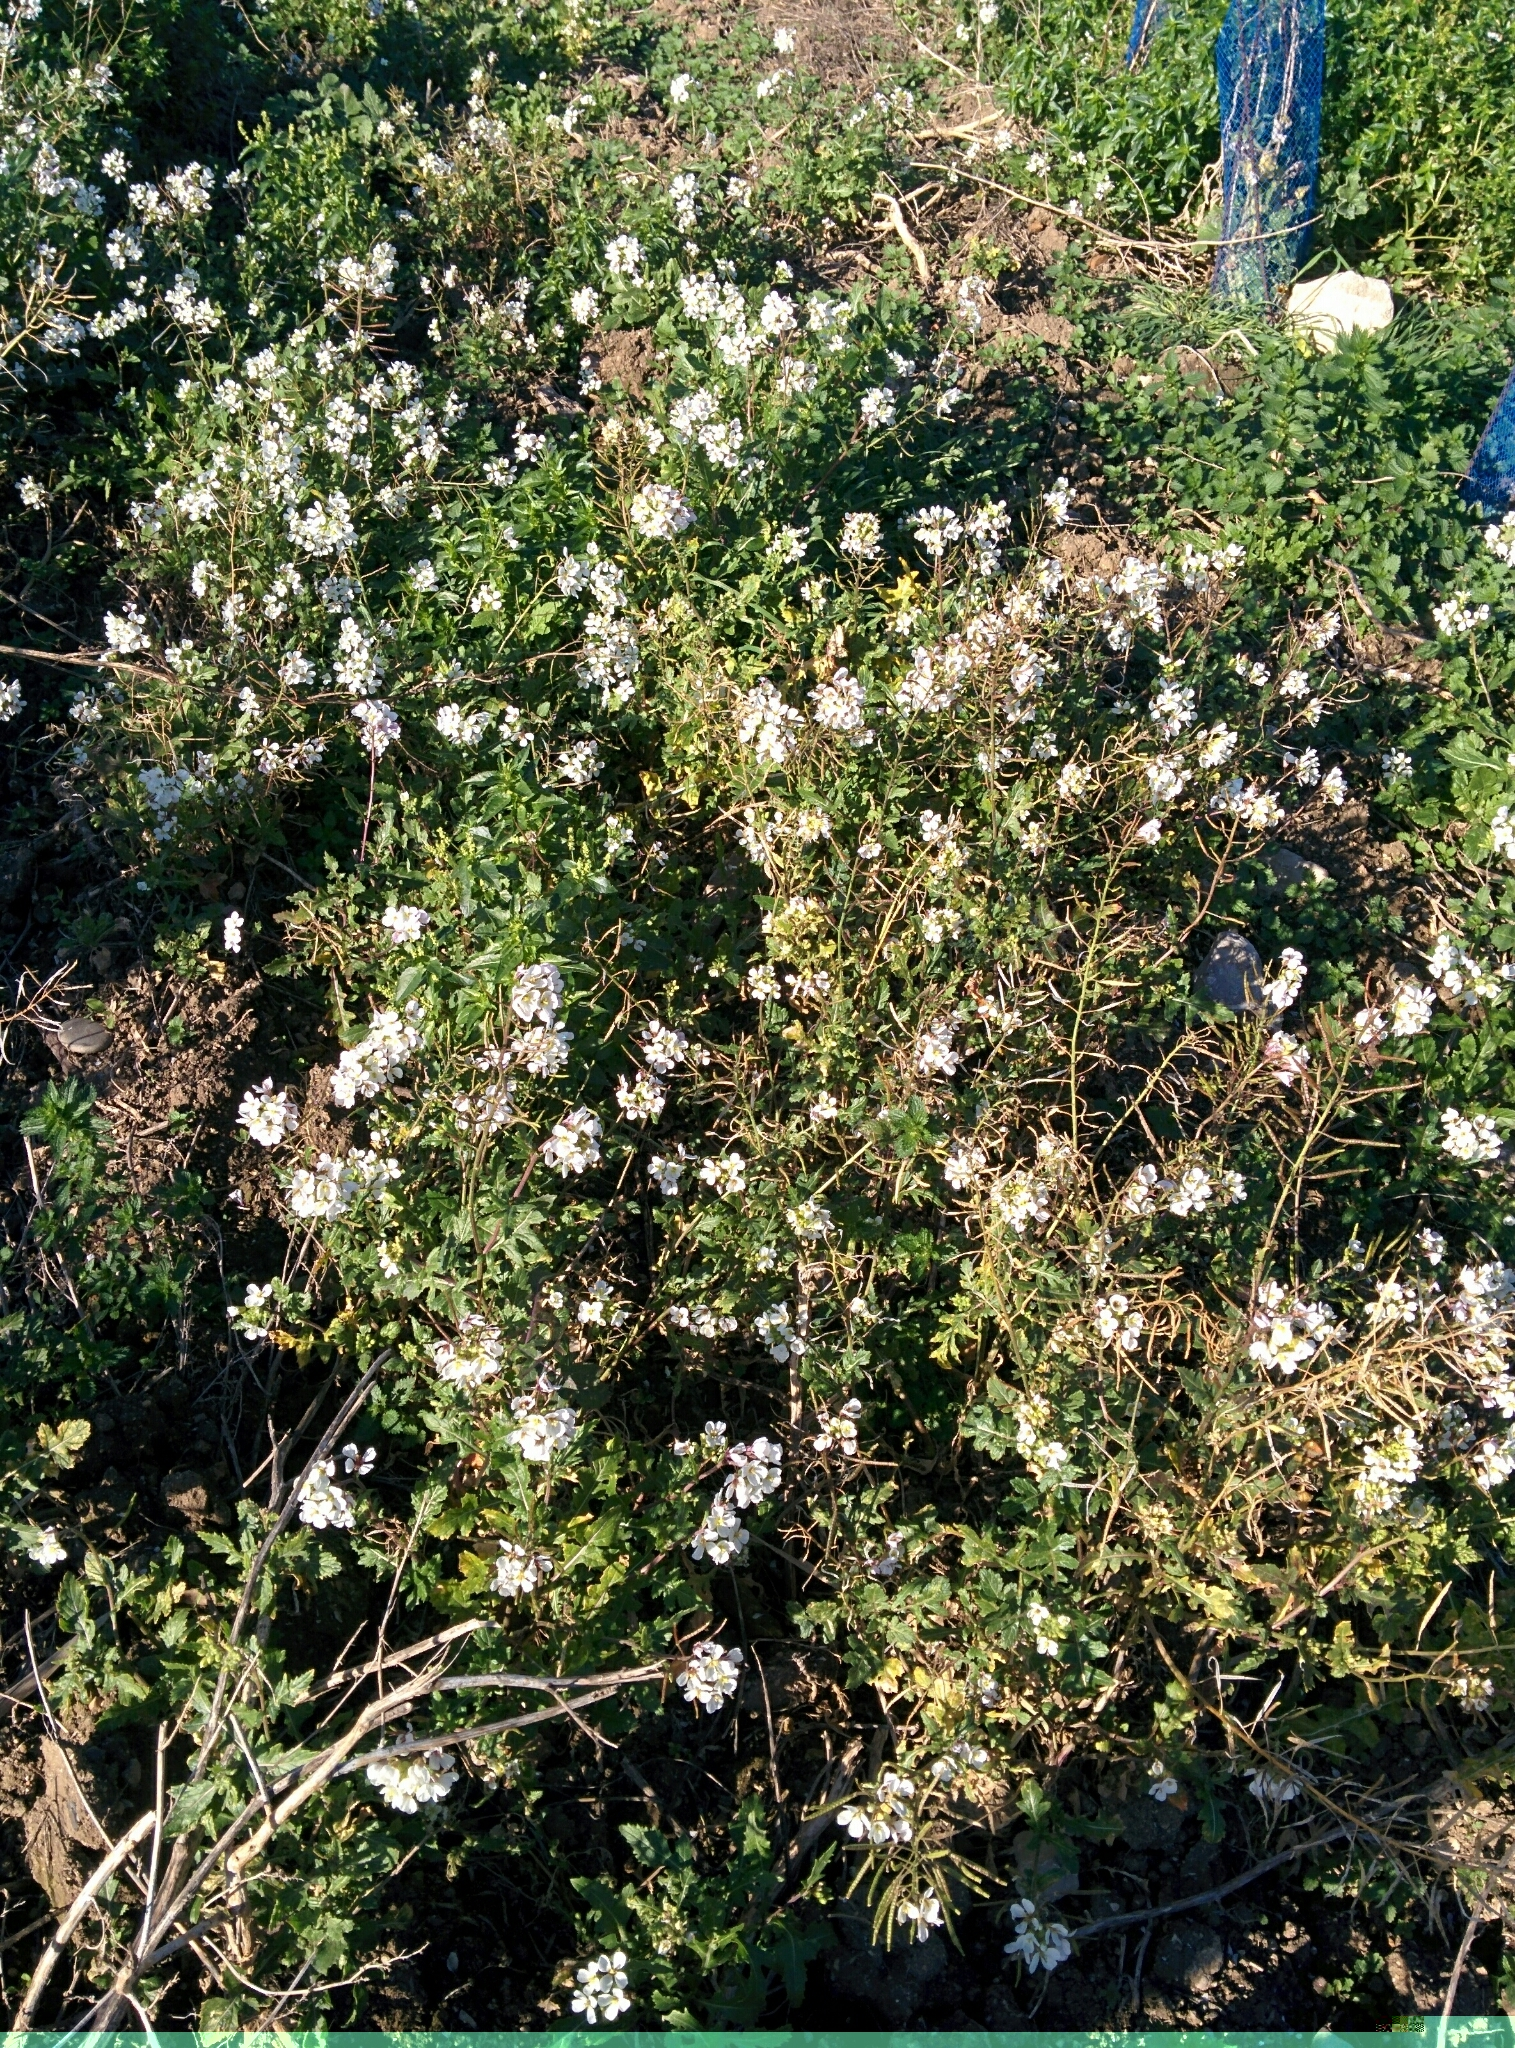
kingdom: Plantae
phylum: Tracheophyta
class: Magnoliopsida
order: Brassicales
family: Brassicaceae
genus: Diplotaxis
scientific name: Diplotaxis erucoides
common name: White rocket
